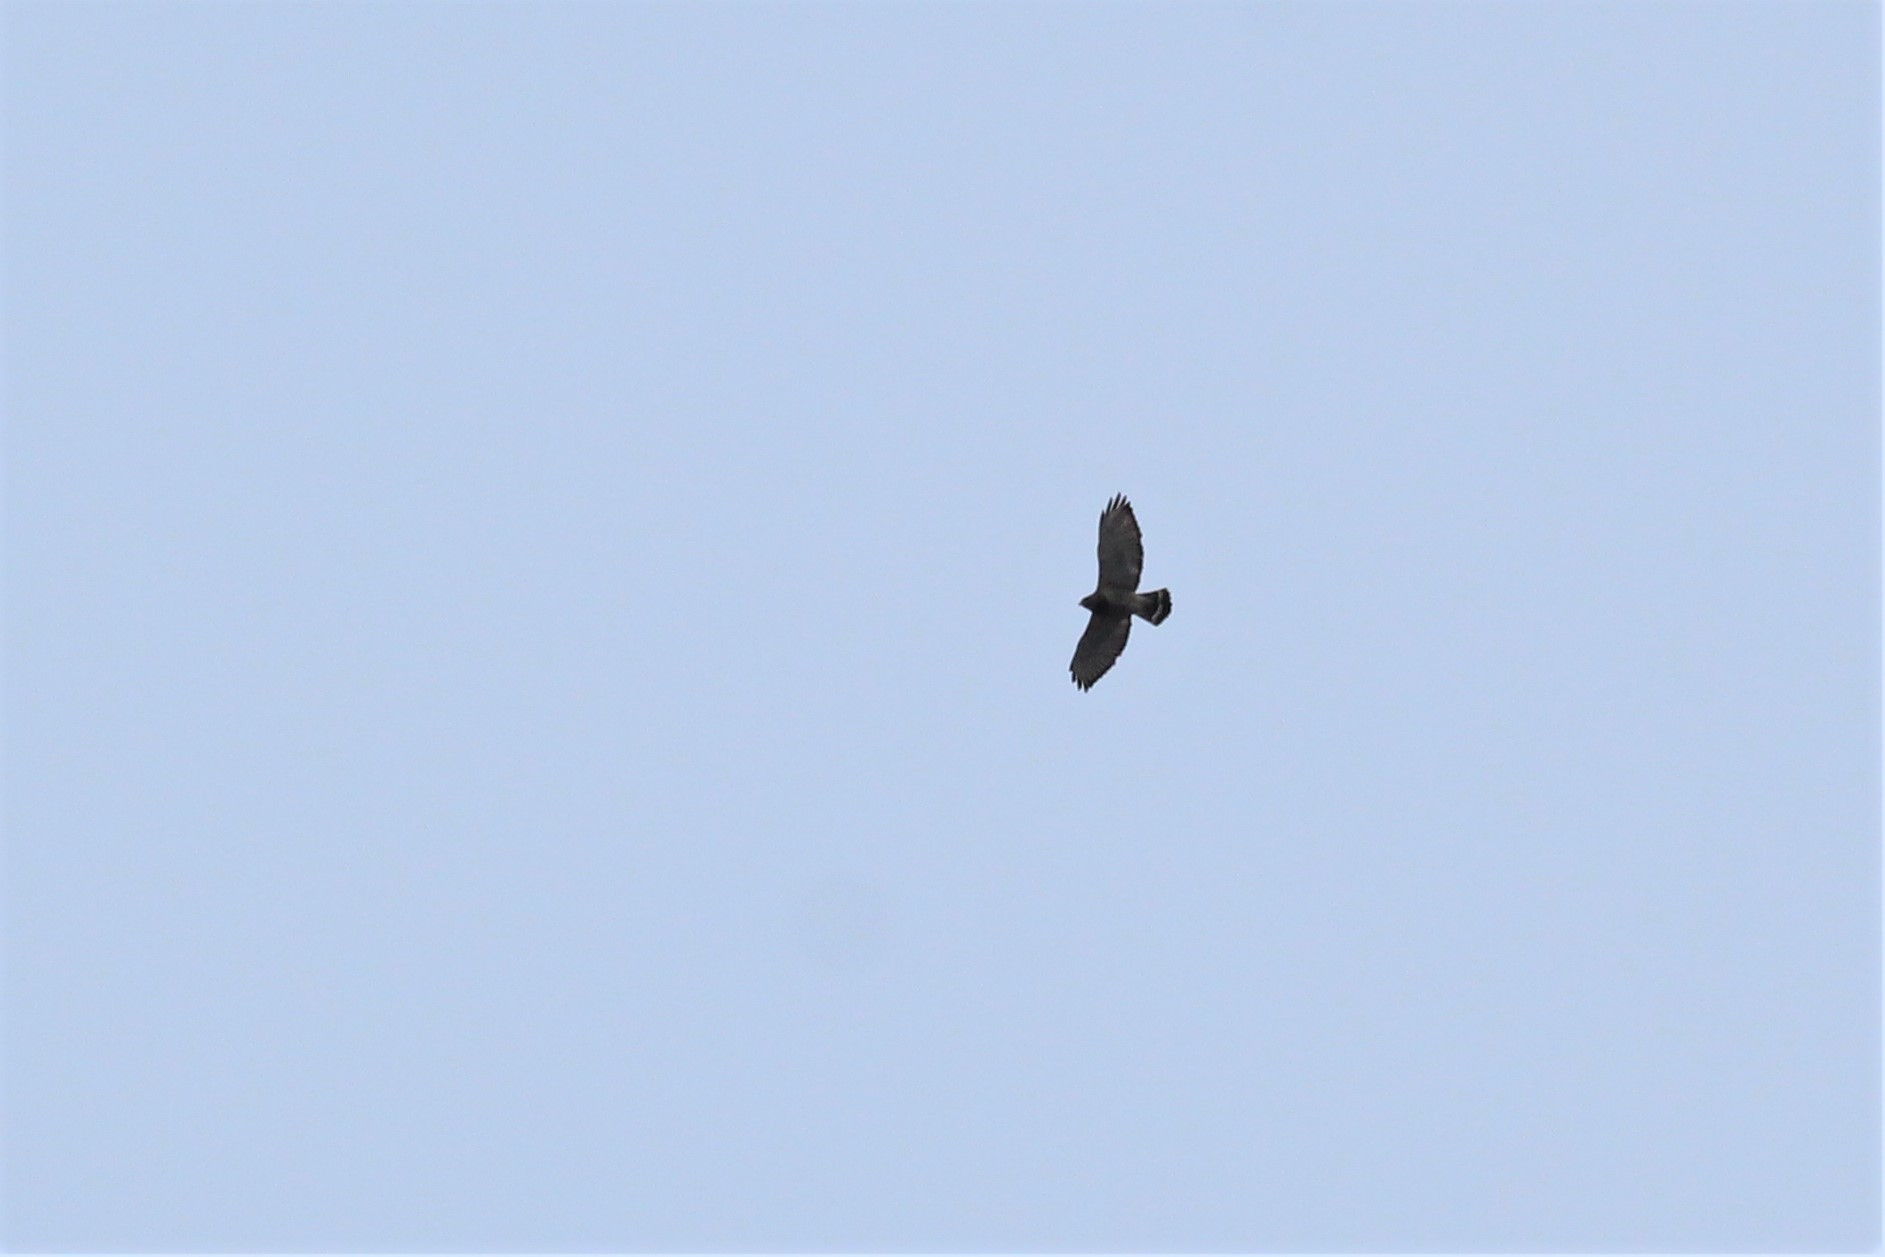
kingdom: Animalia
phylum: Chordata
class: Aves
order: Accipitriformes
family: Accipitridae
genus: Buteo
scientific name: Buteo platypterus
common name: Broad-winged hawk
